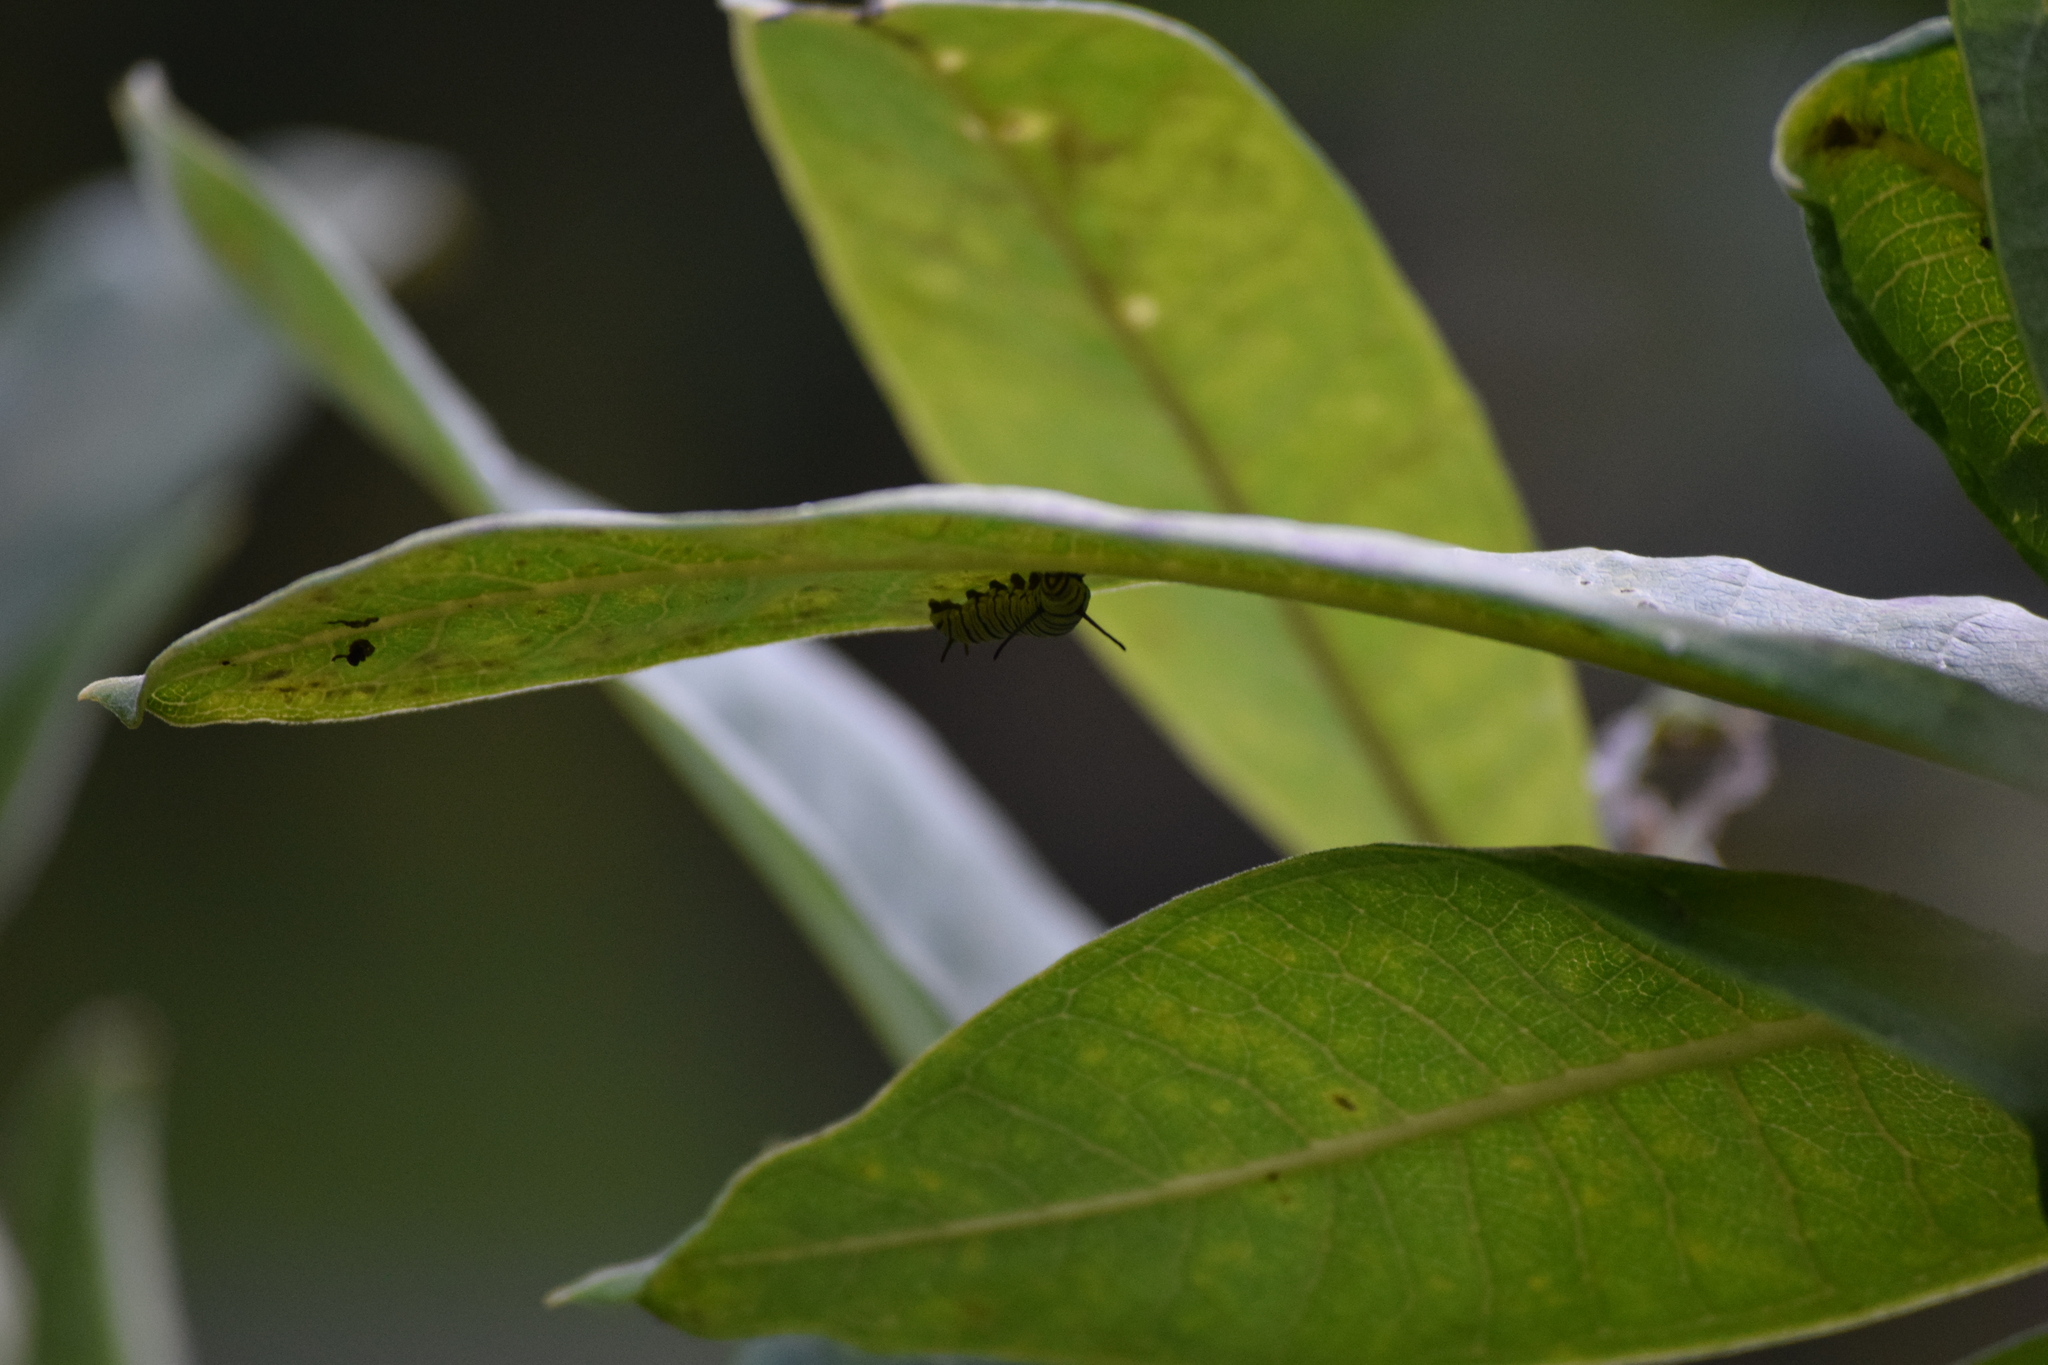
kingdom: Animalia
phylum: Arthropoda
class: Insecta
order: Lepidoptera
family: Nymphalidae
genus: Danaus
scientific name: Danaus plexippus
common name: Monarch
